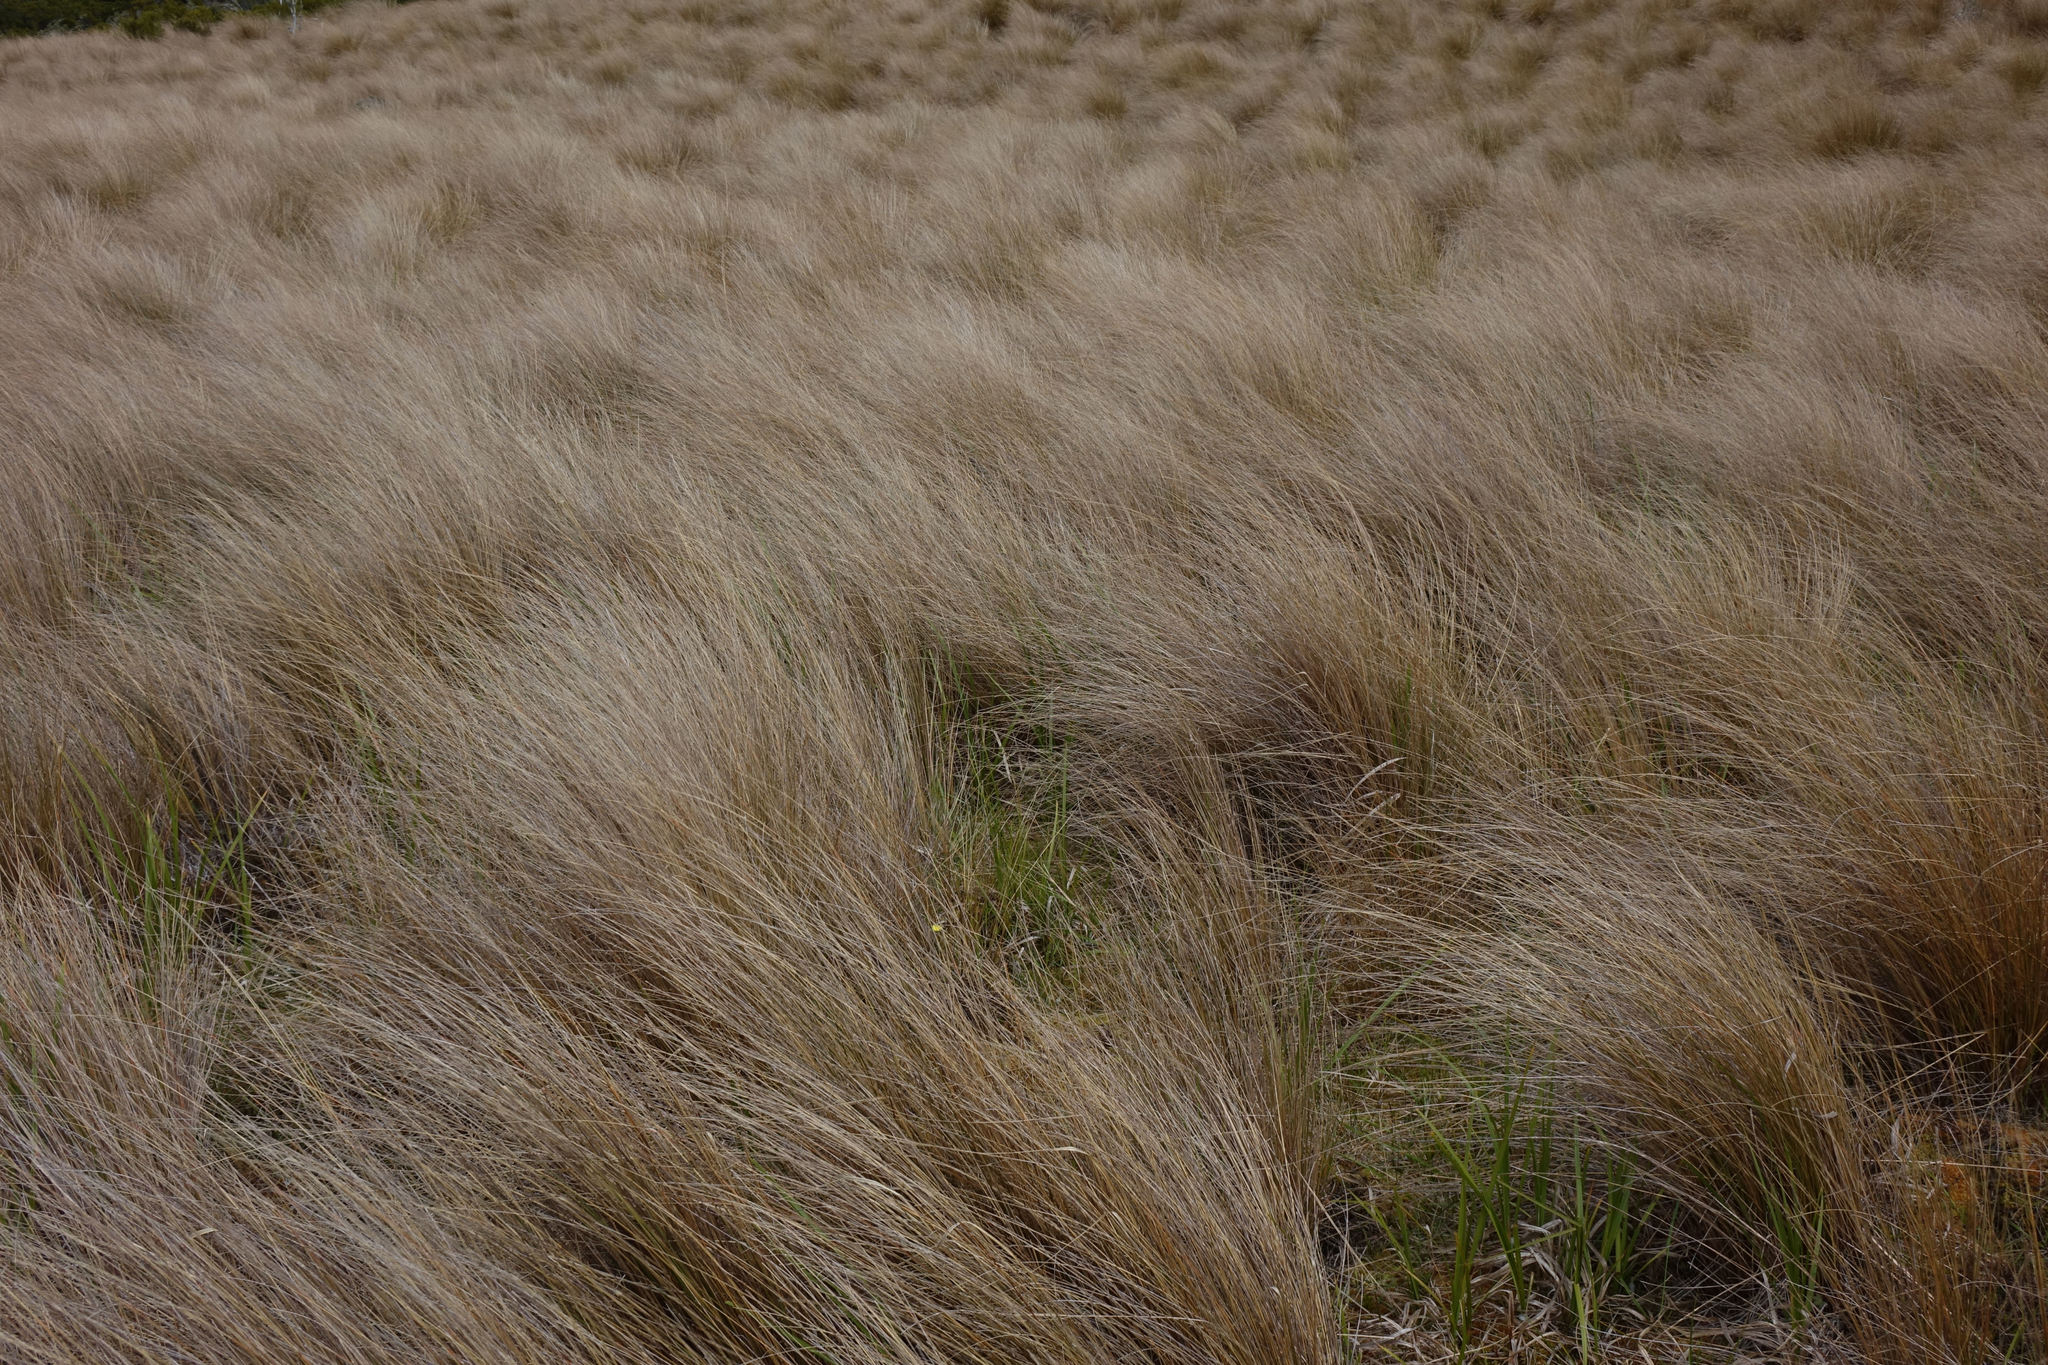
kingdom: Plantae
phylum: Tracheophyta
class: Liliopsida
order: Poales
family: Poaceae
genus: Chionochloa
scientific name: Chionochloa rubra
